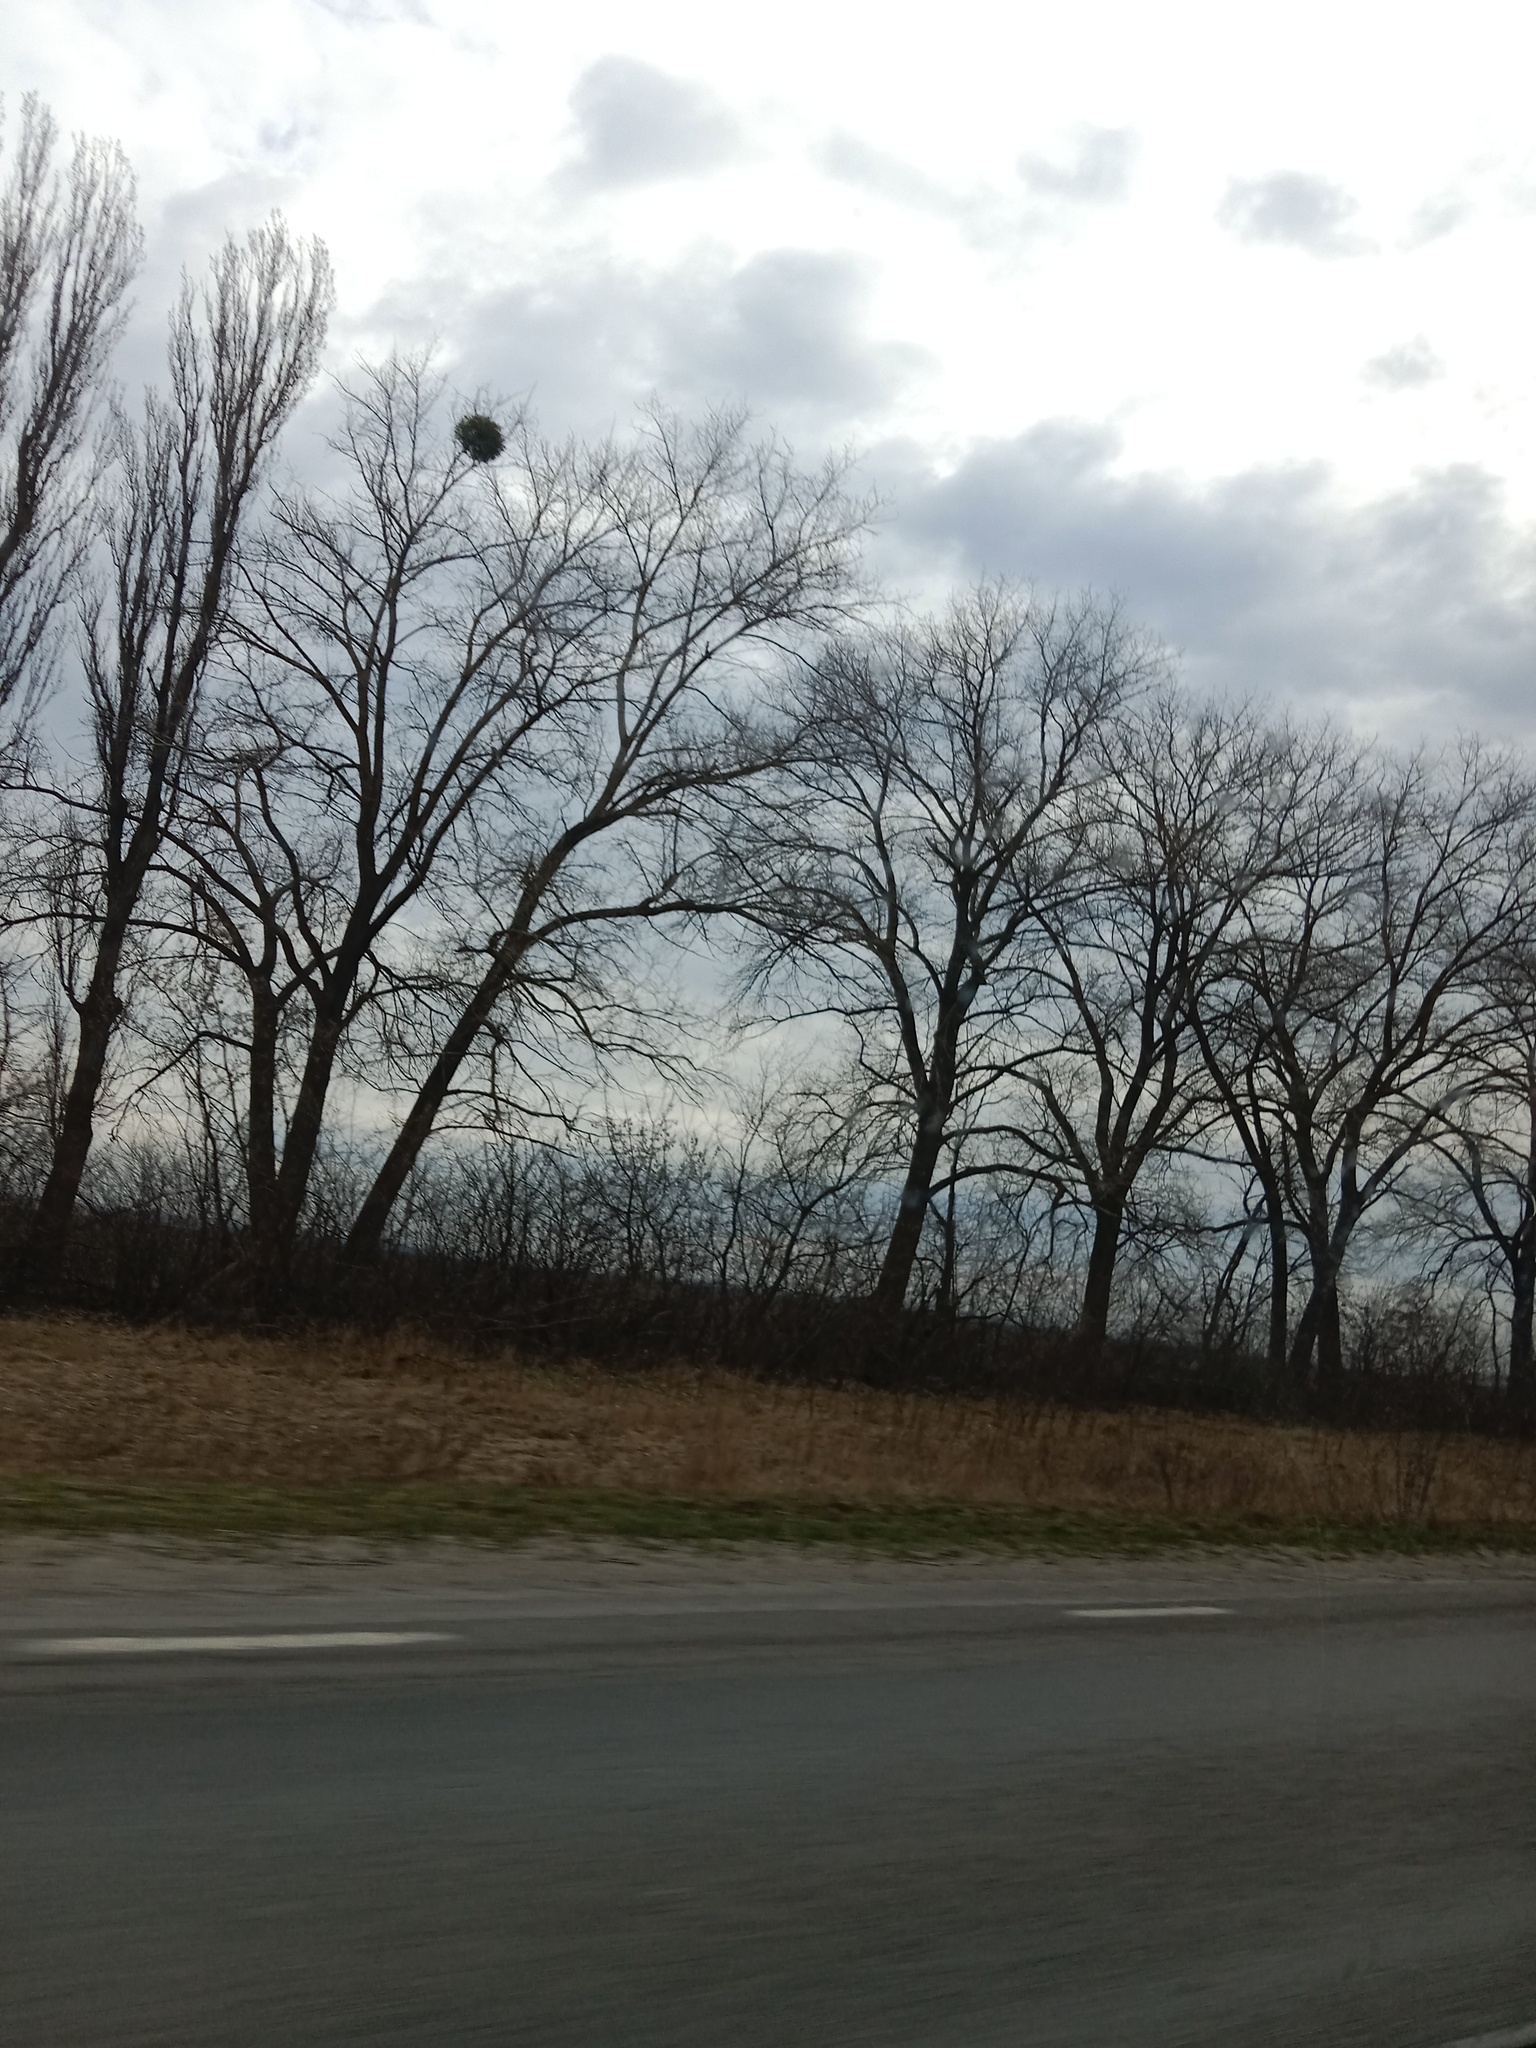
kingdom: Plantae
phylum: Tracheophyta
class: Magnoliopsida
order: Santalales
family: Viscaceae
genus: Viscum
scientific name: Viscum album
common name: Mistletoe
